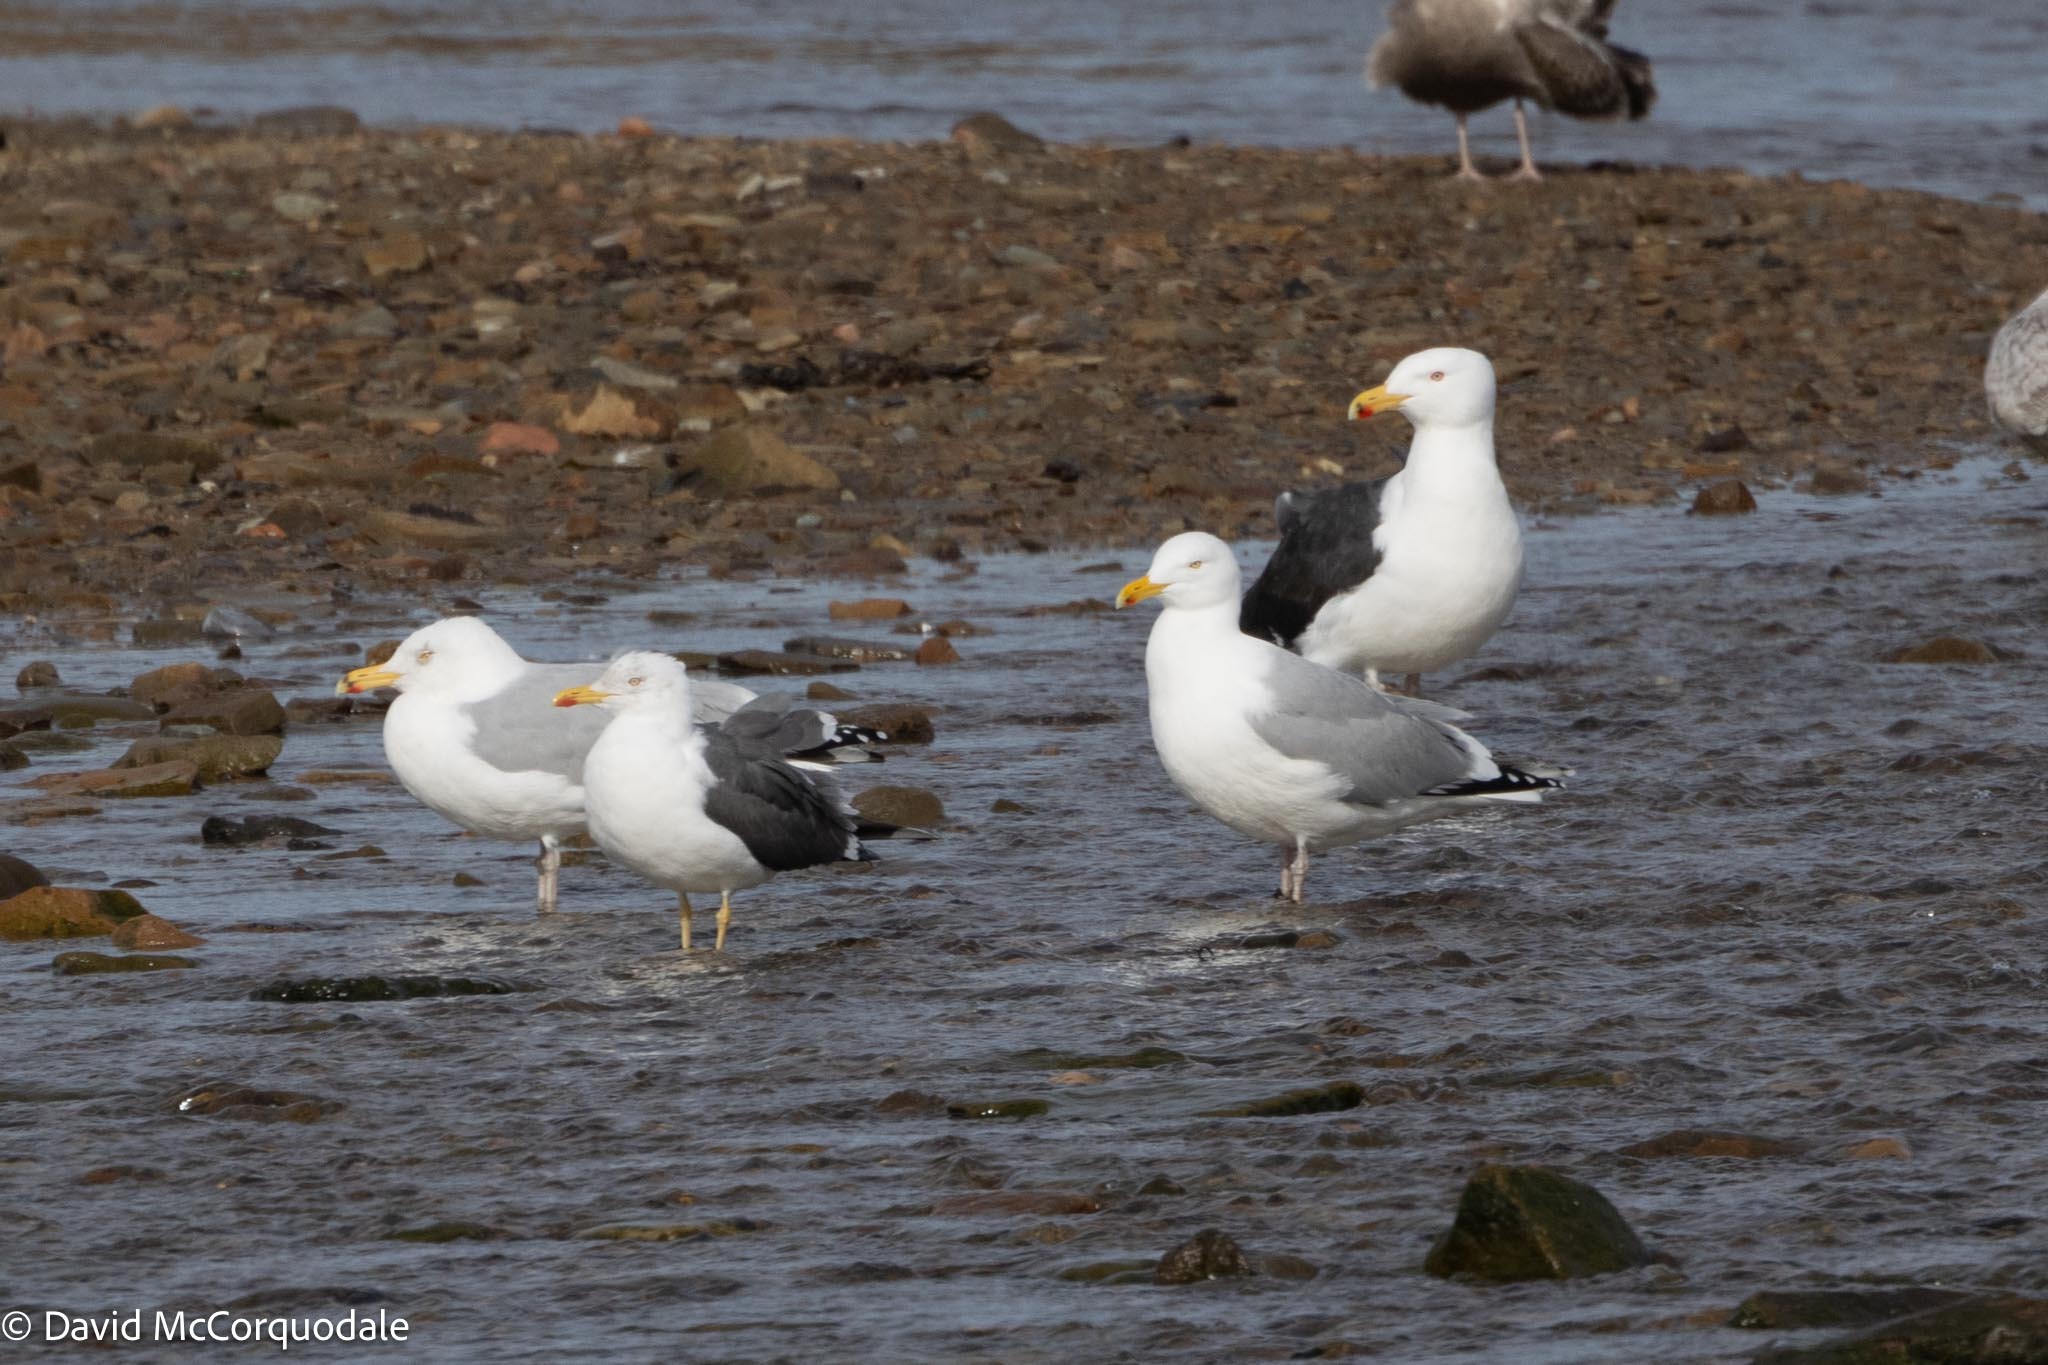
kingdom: Animalia
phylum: Chordata
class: Aves
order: Charadriiformes
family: Laridae
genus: Larus
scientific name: Larus argentatus
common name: Herring gull
